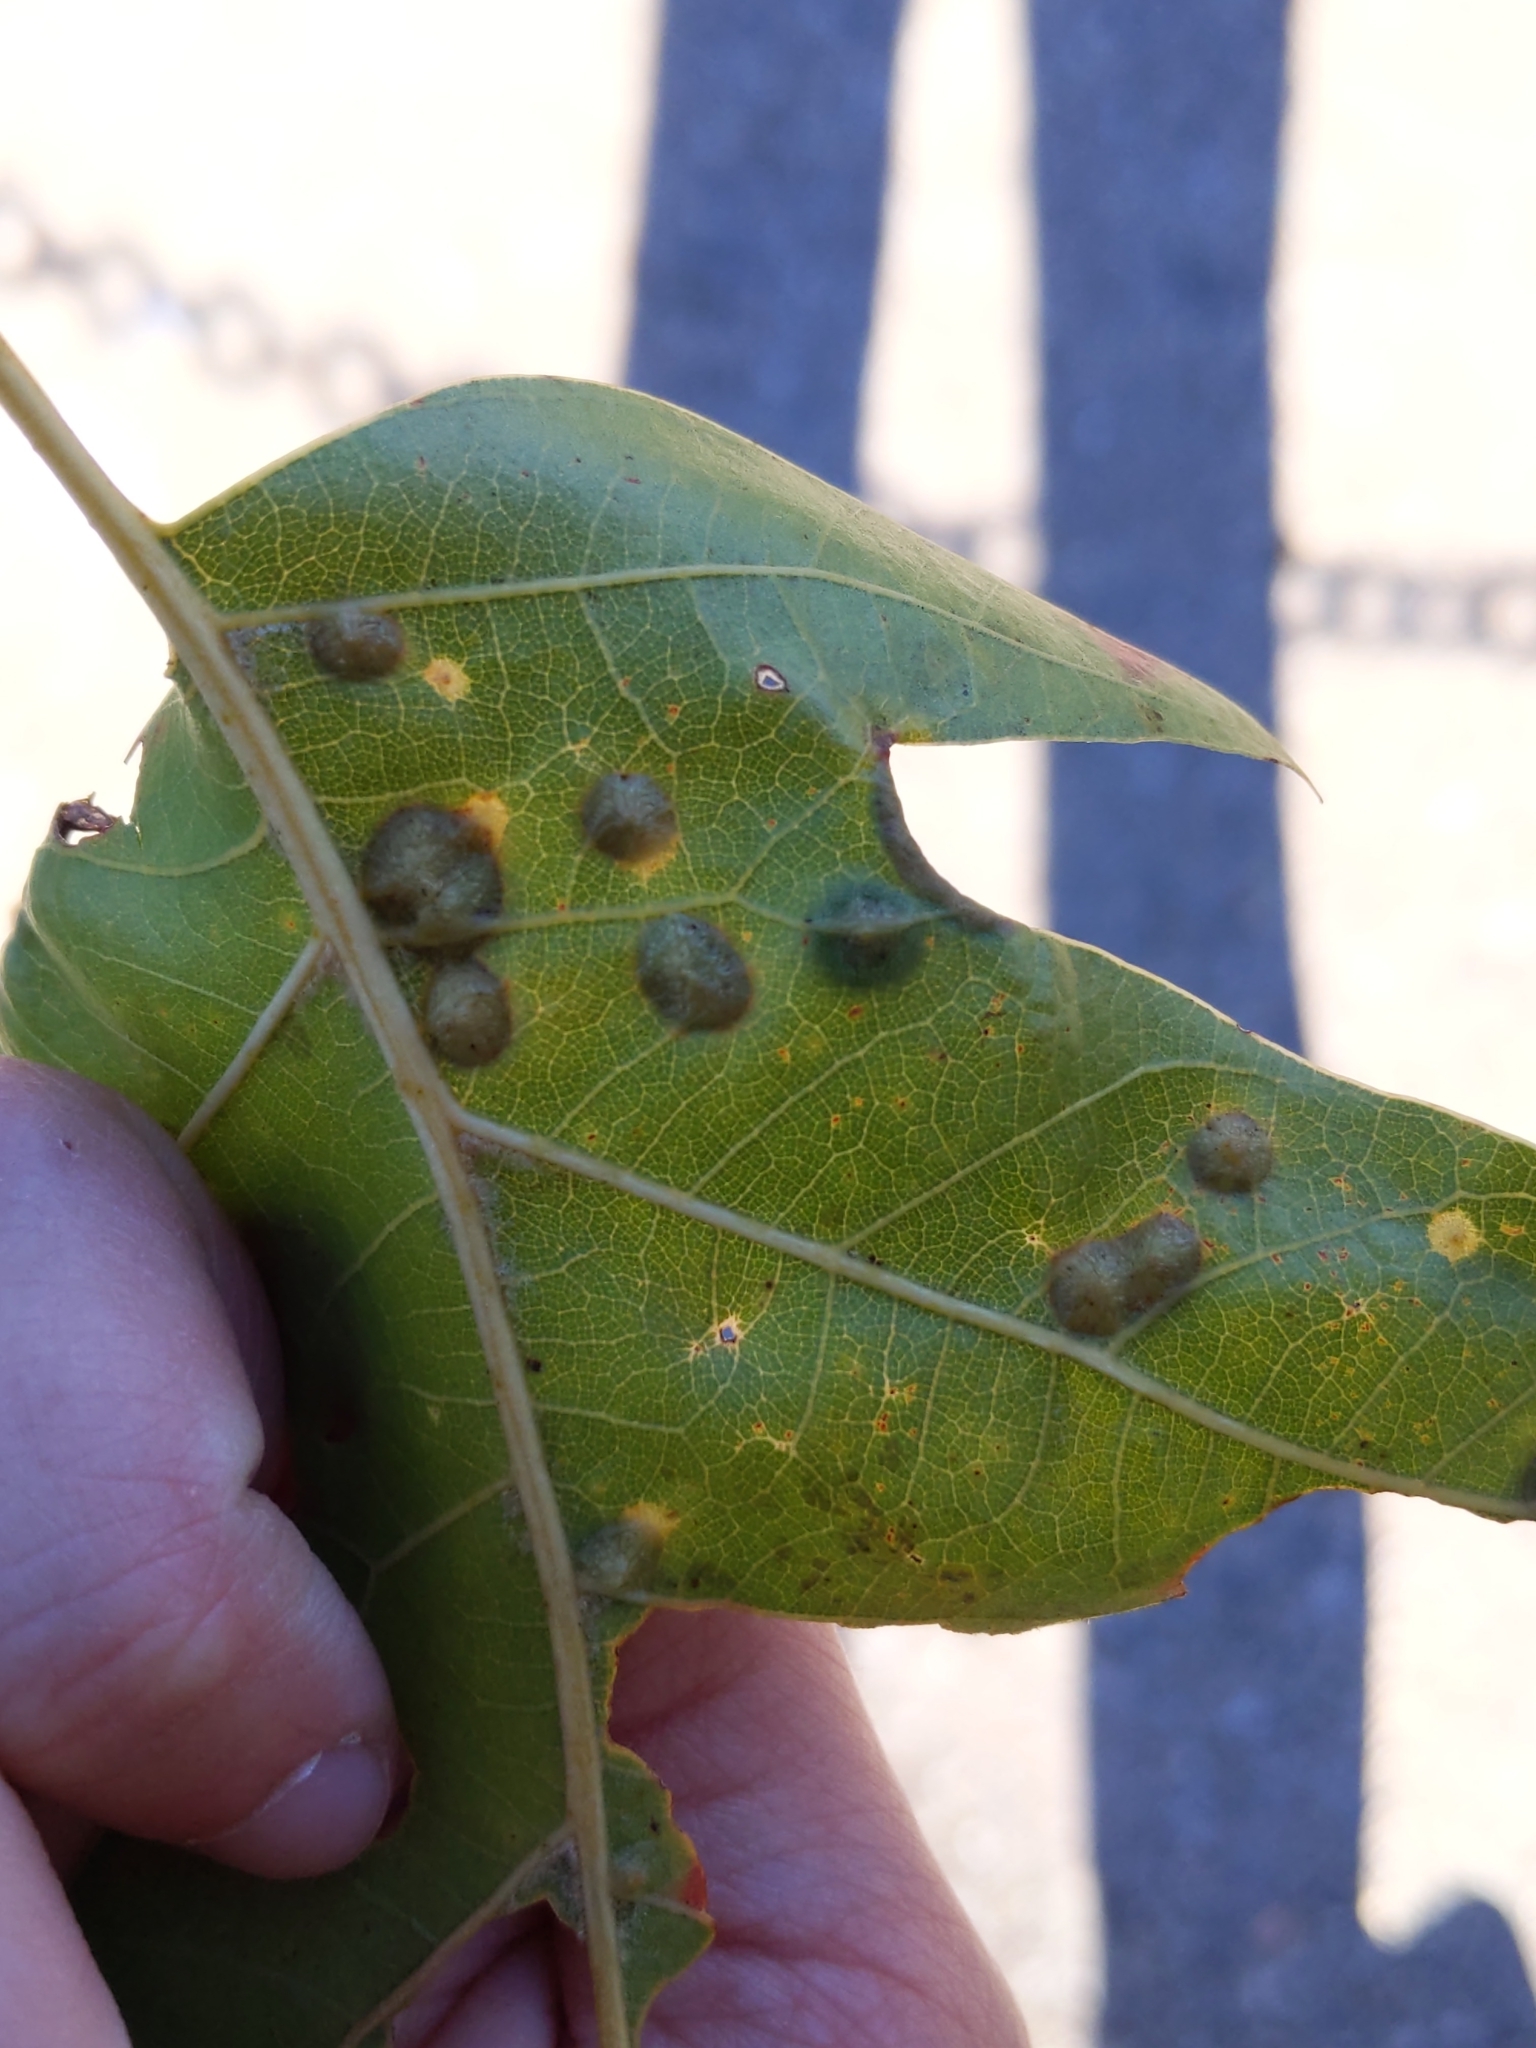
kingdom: Animalia
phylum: Arthropoda
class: Insecta
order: Diptera
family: Cecidomyiidae
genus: Polystepha
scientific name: Polystepha pilulae
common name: Oak leaf gall midge
